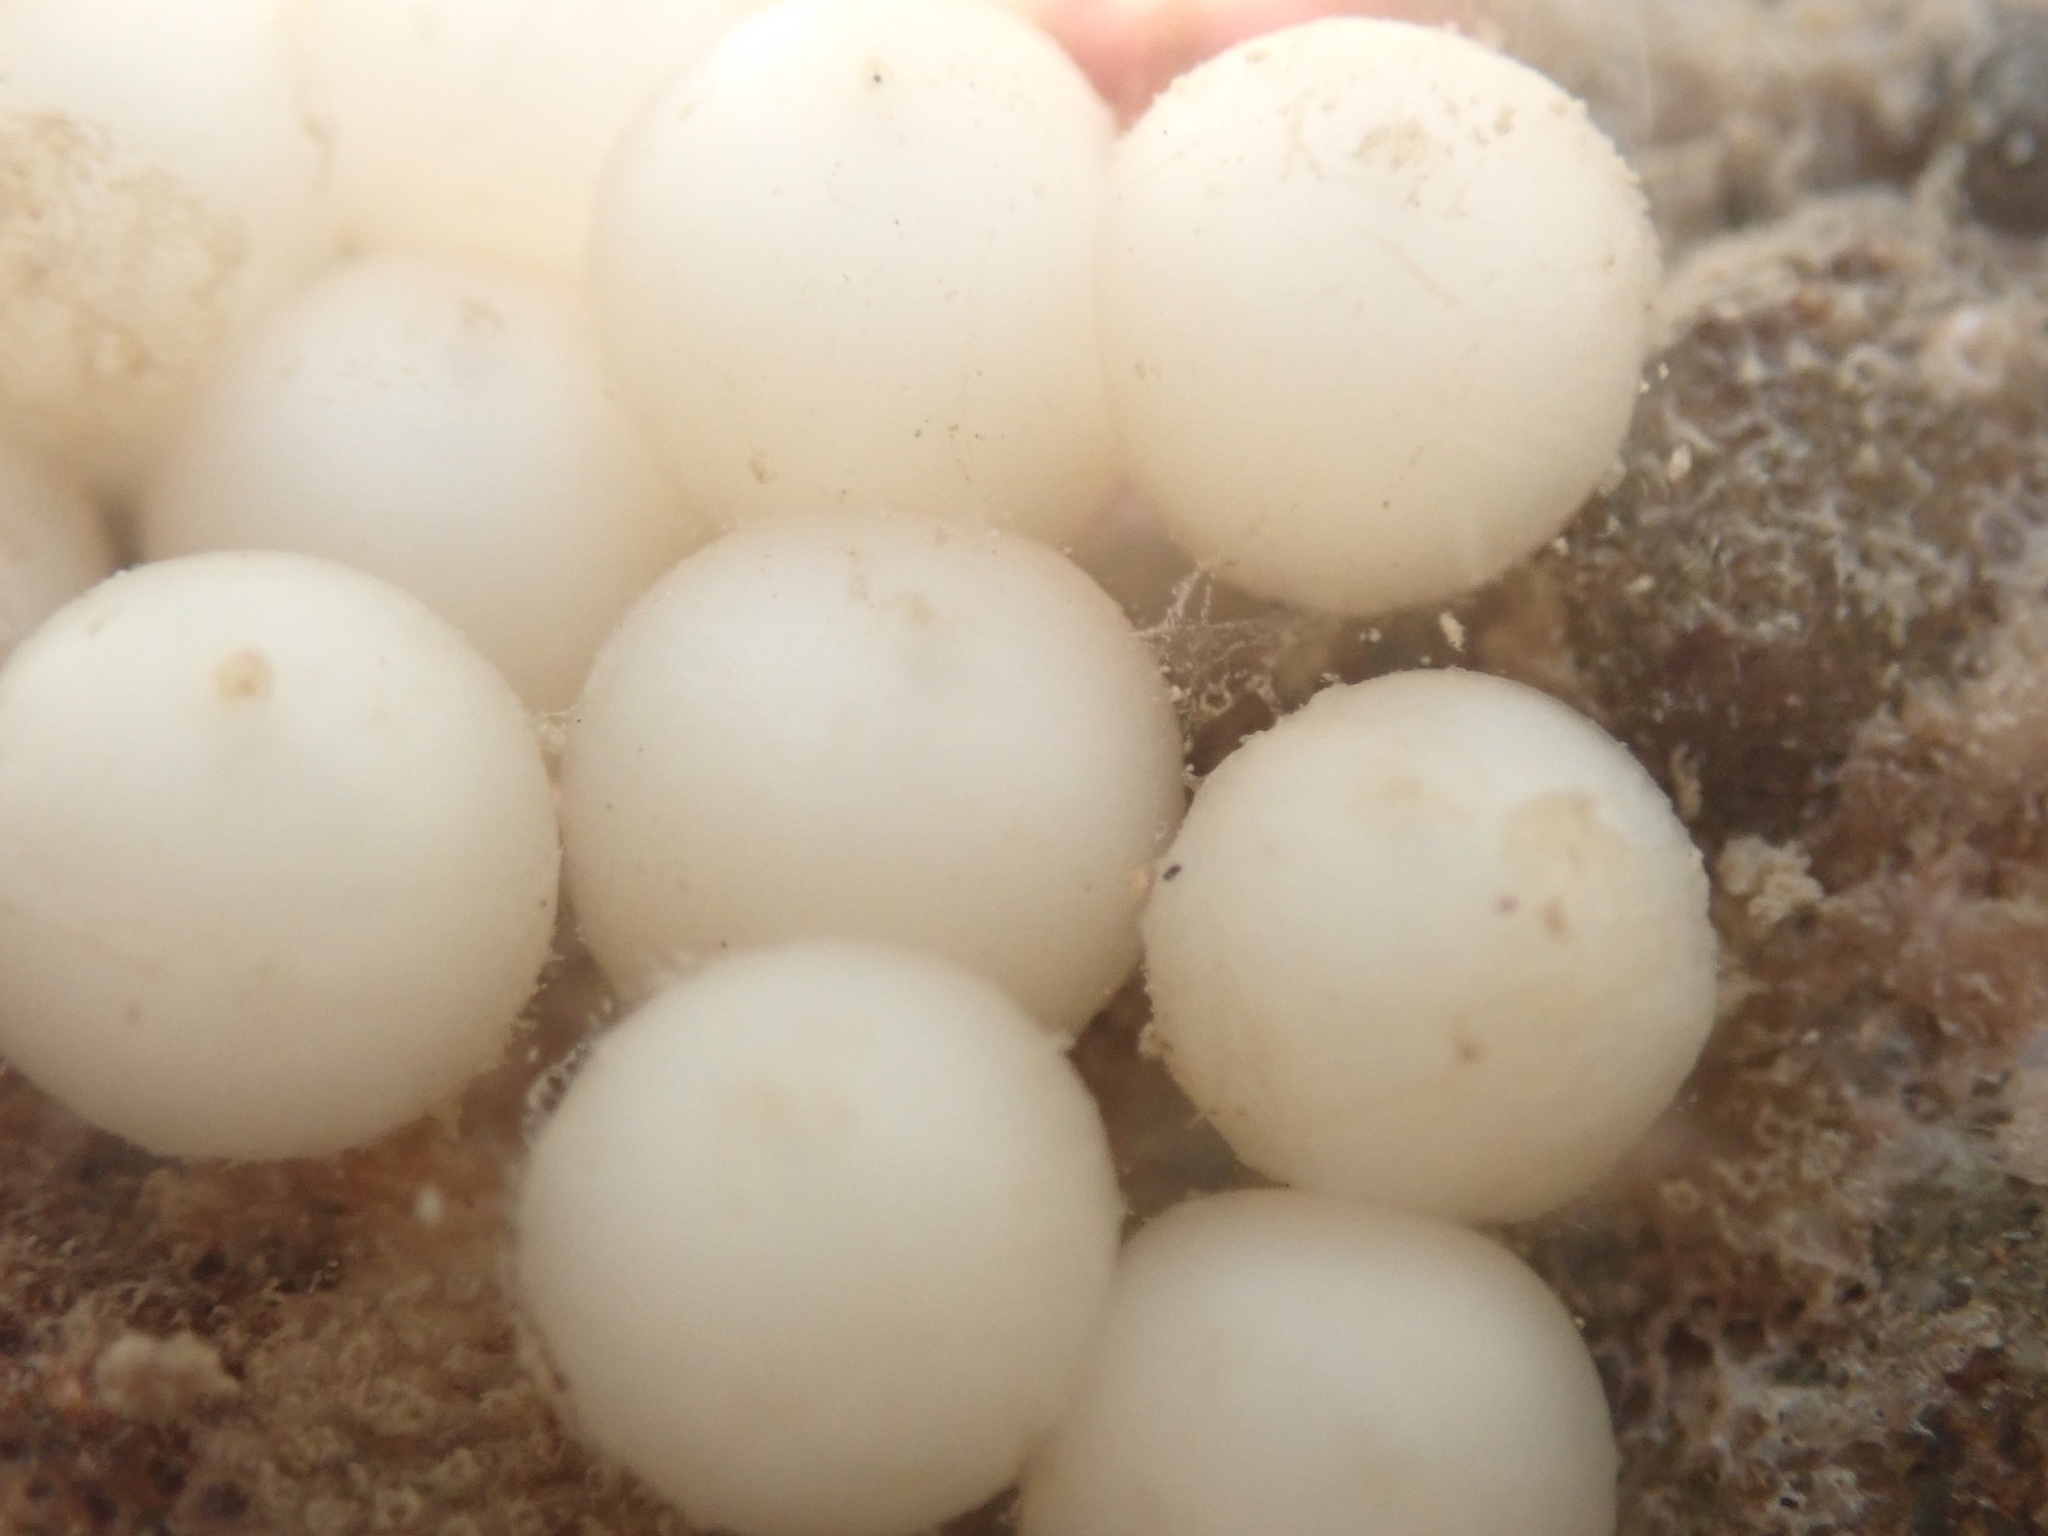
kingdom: Animalia
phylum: Mollusca
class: Cephalopoda
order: Sepiida
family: Sepiadariidae
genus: Sepioloidea
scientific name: Sepioloidea pacifica
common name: Pacific bobtail squid
